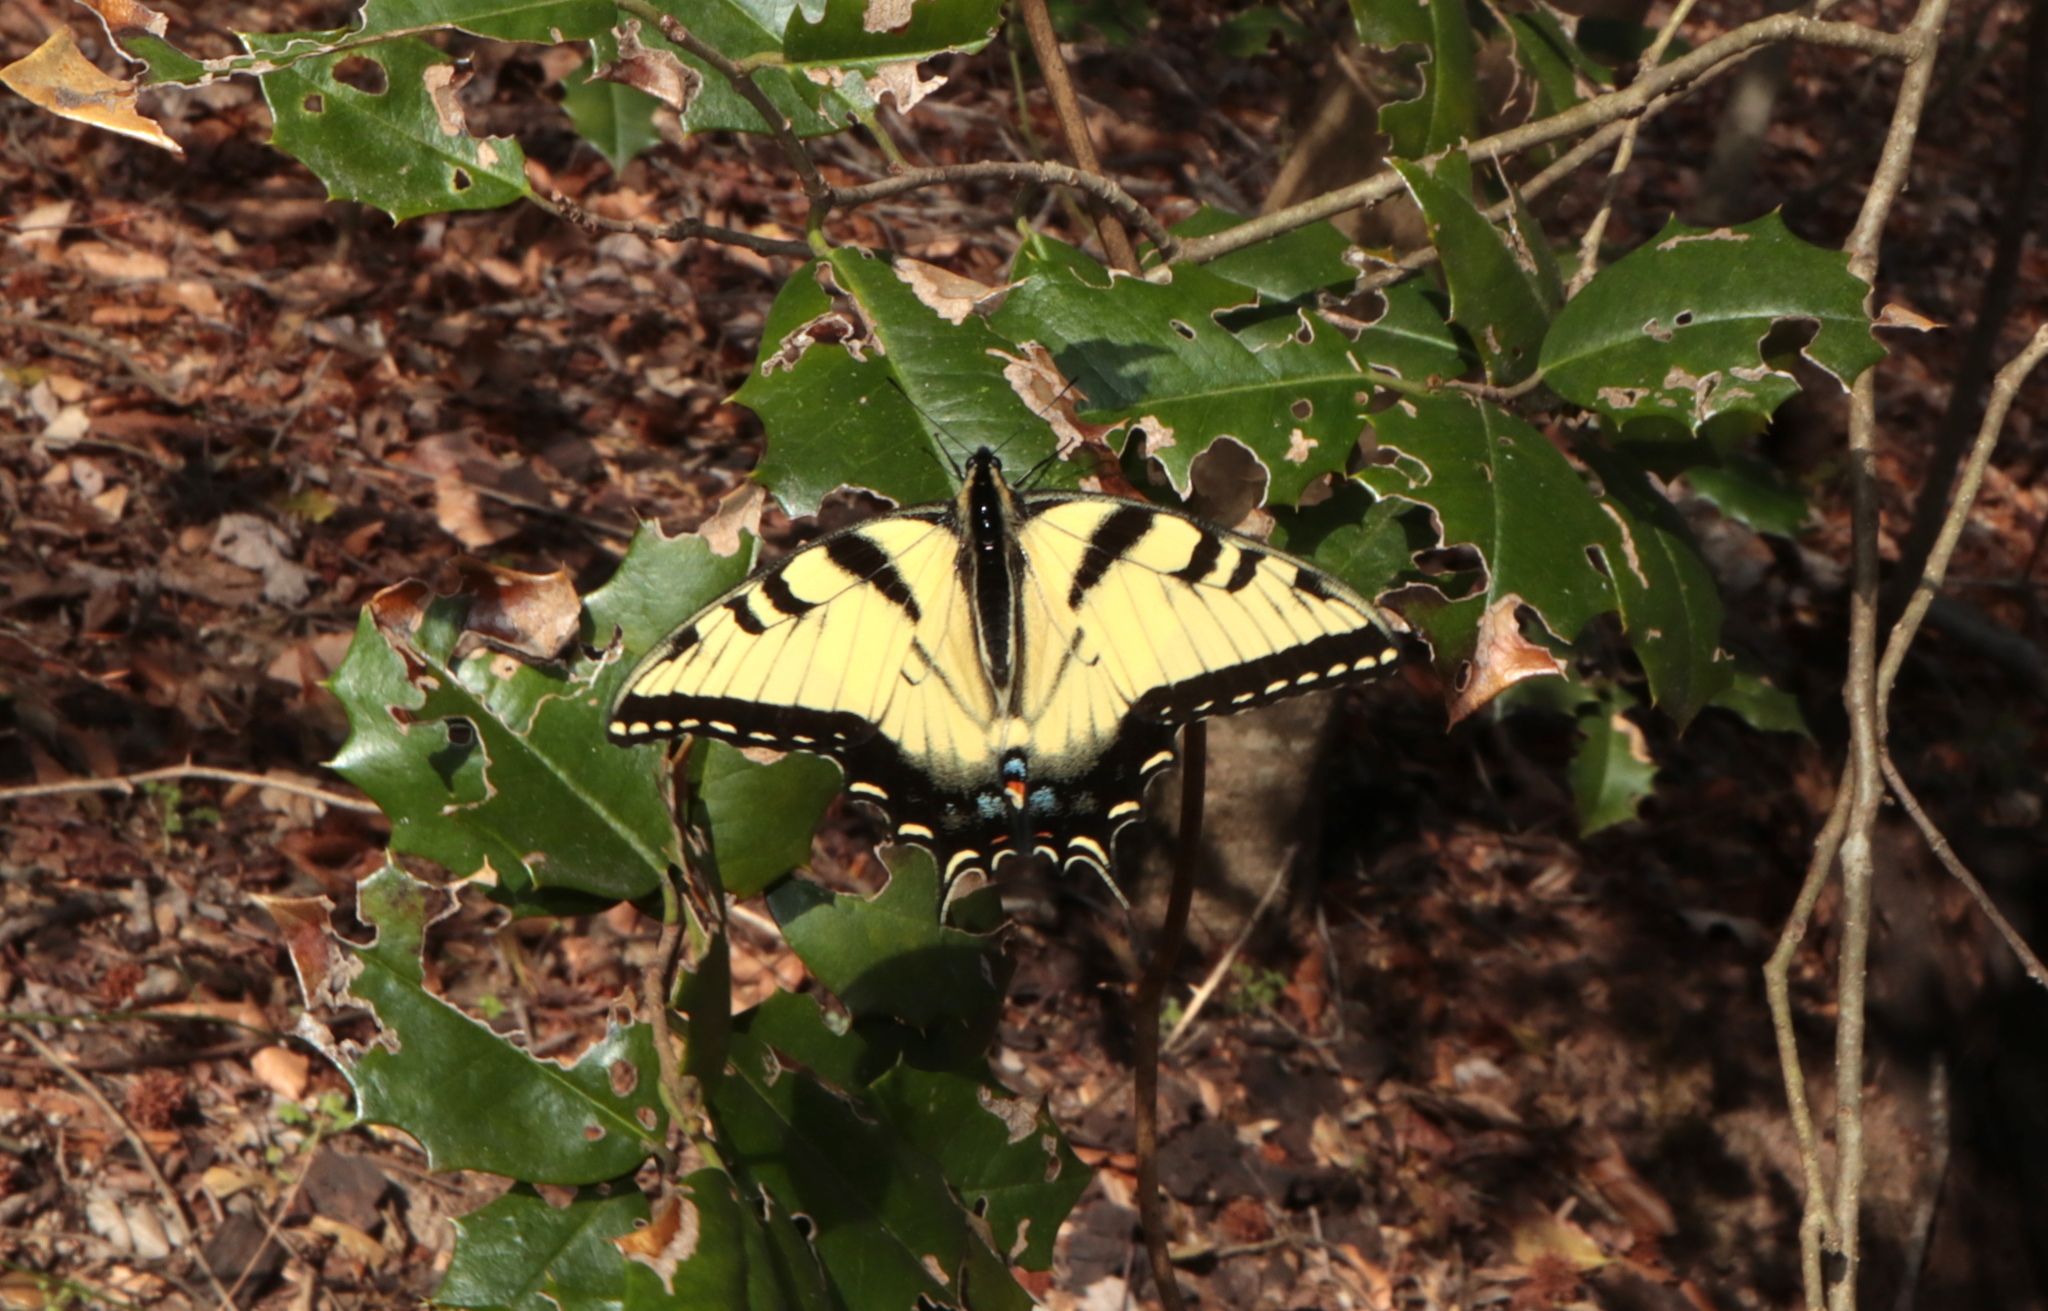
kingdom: Animalia
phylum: Arthropoda
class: Insecta
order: Lepidoptera
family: Papilionidae
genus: Papilio
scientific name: Papilio glaucus
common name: Tiger swallowtail
